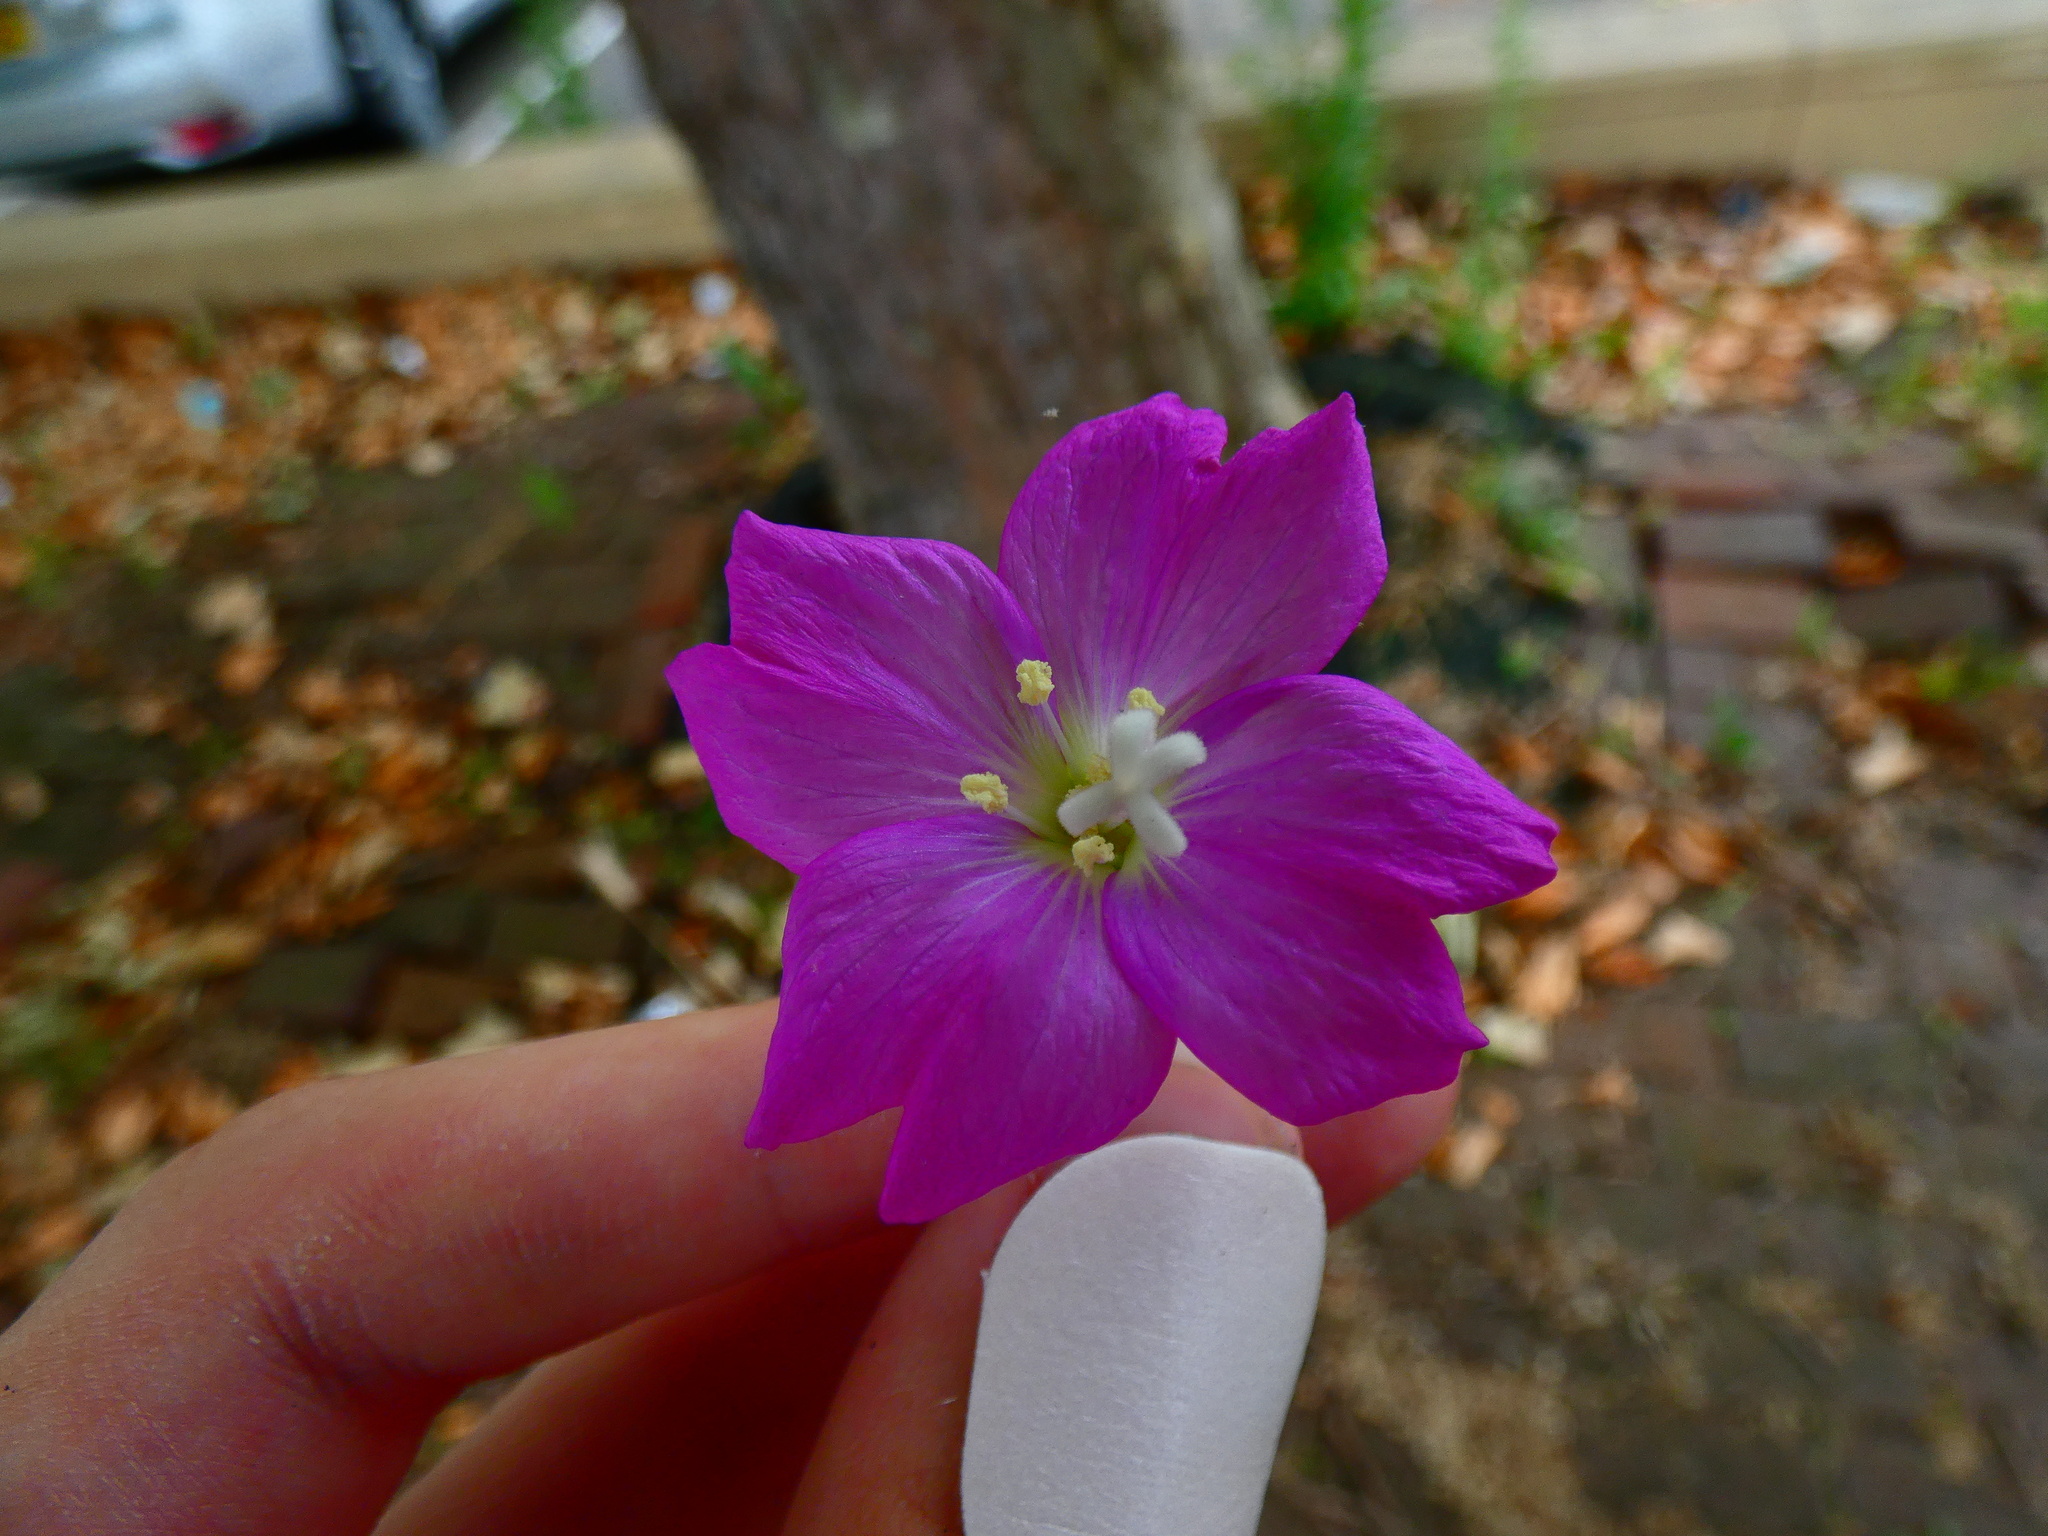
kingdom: Plantae
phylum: Tracheophyta
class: Magnoliopsida
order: Myrtales
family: Onagraceae
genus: Epilobium
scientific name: Epilobium hirsutum
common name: Great willowherb
